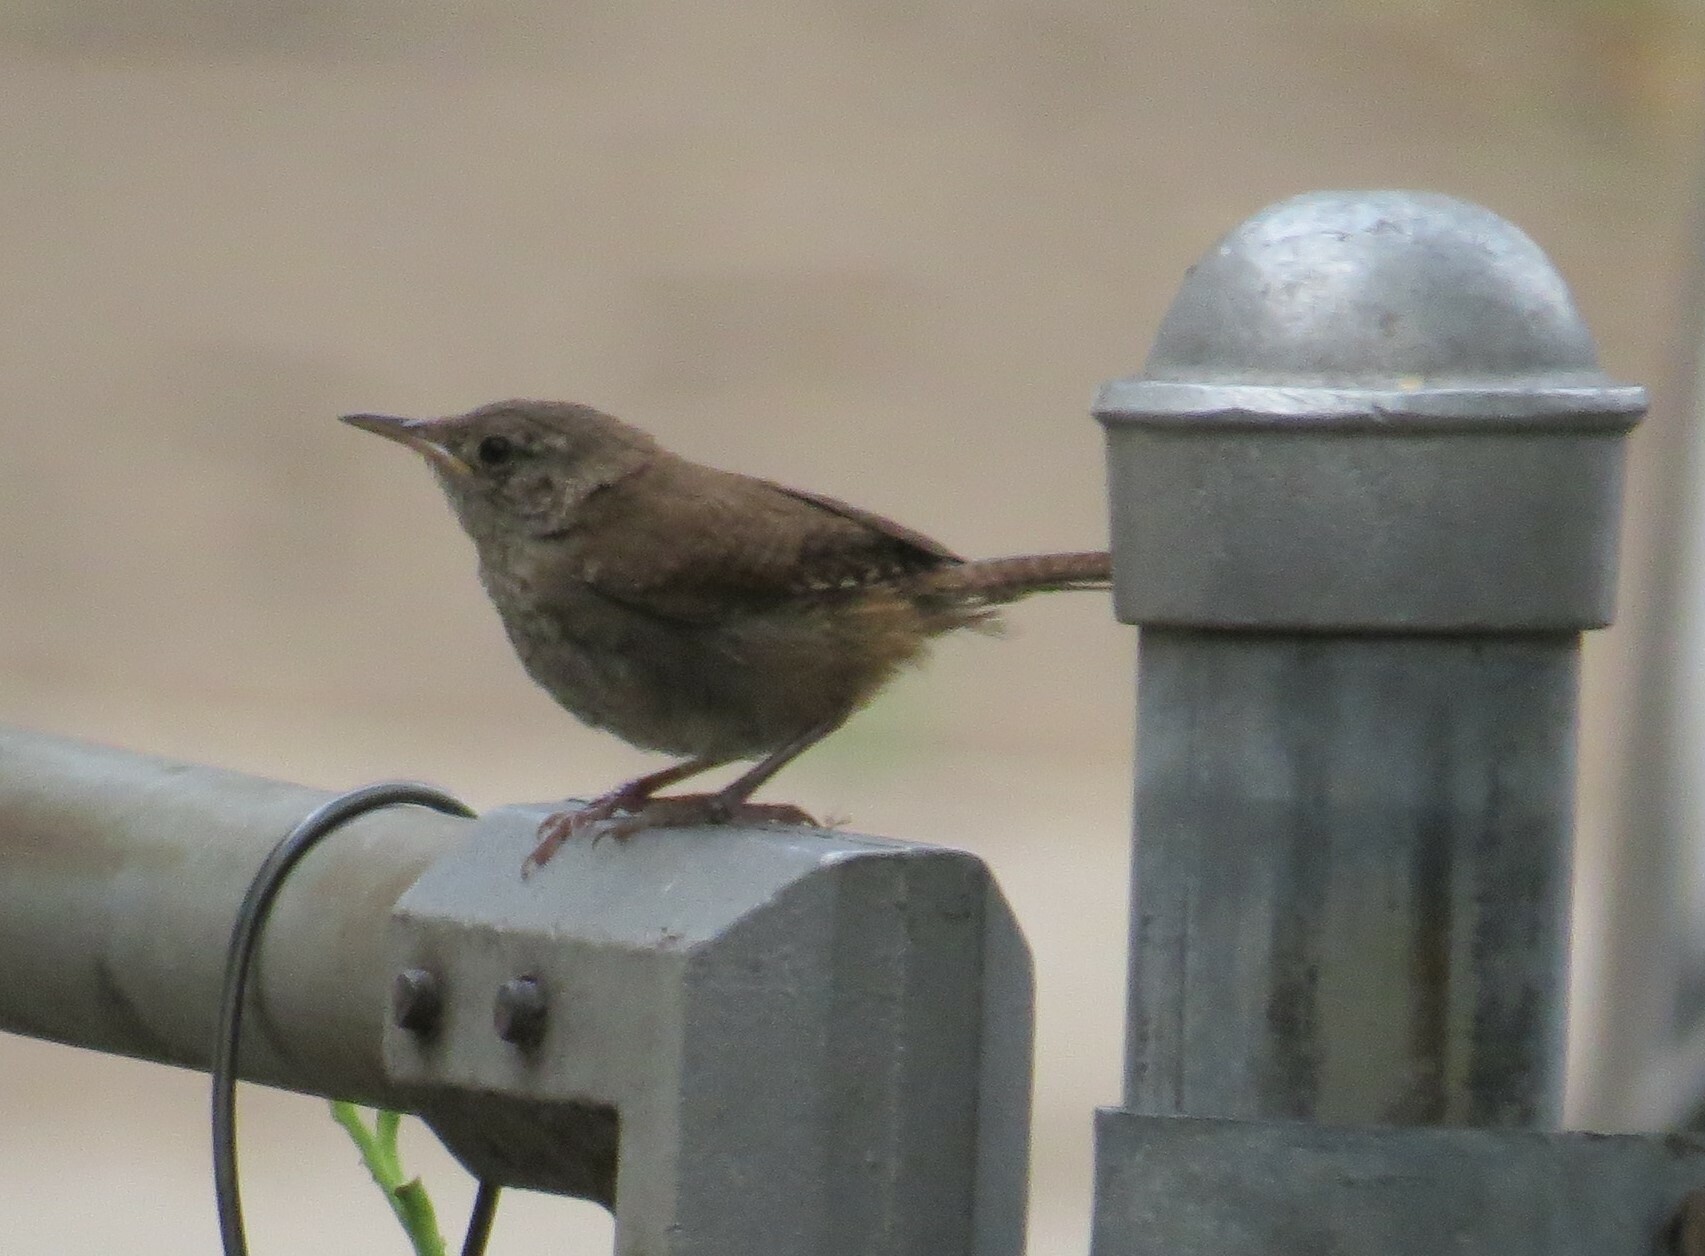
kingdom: Animalia
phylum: Chordata
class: Aves
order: Passeriformes
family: Troglodytidae
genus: Troglodytes
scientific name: Troglodytes aedon
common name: House wren
